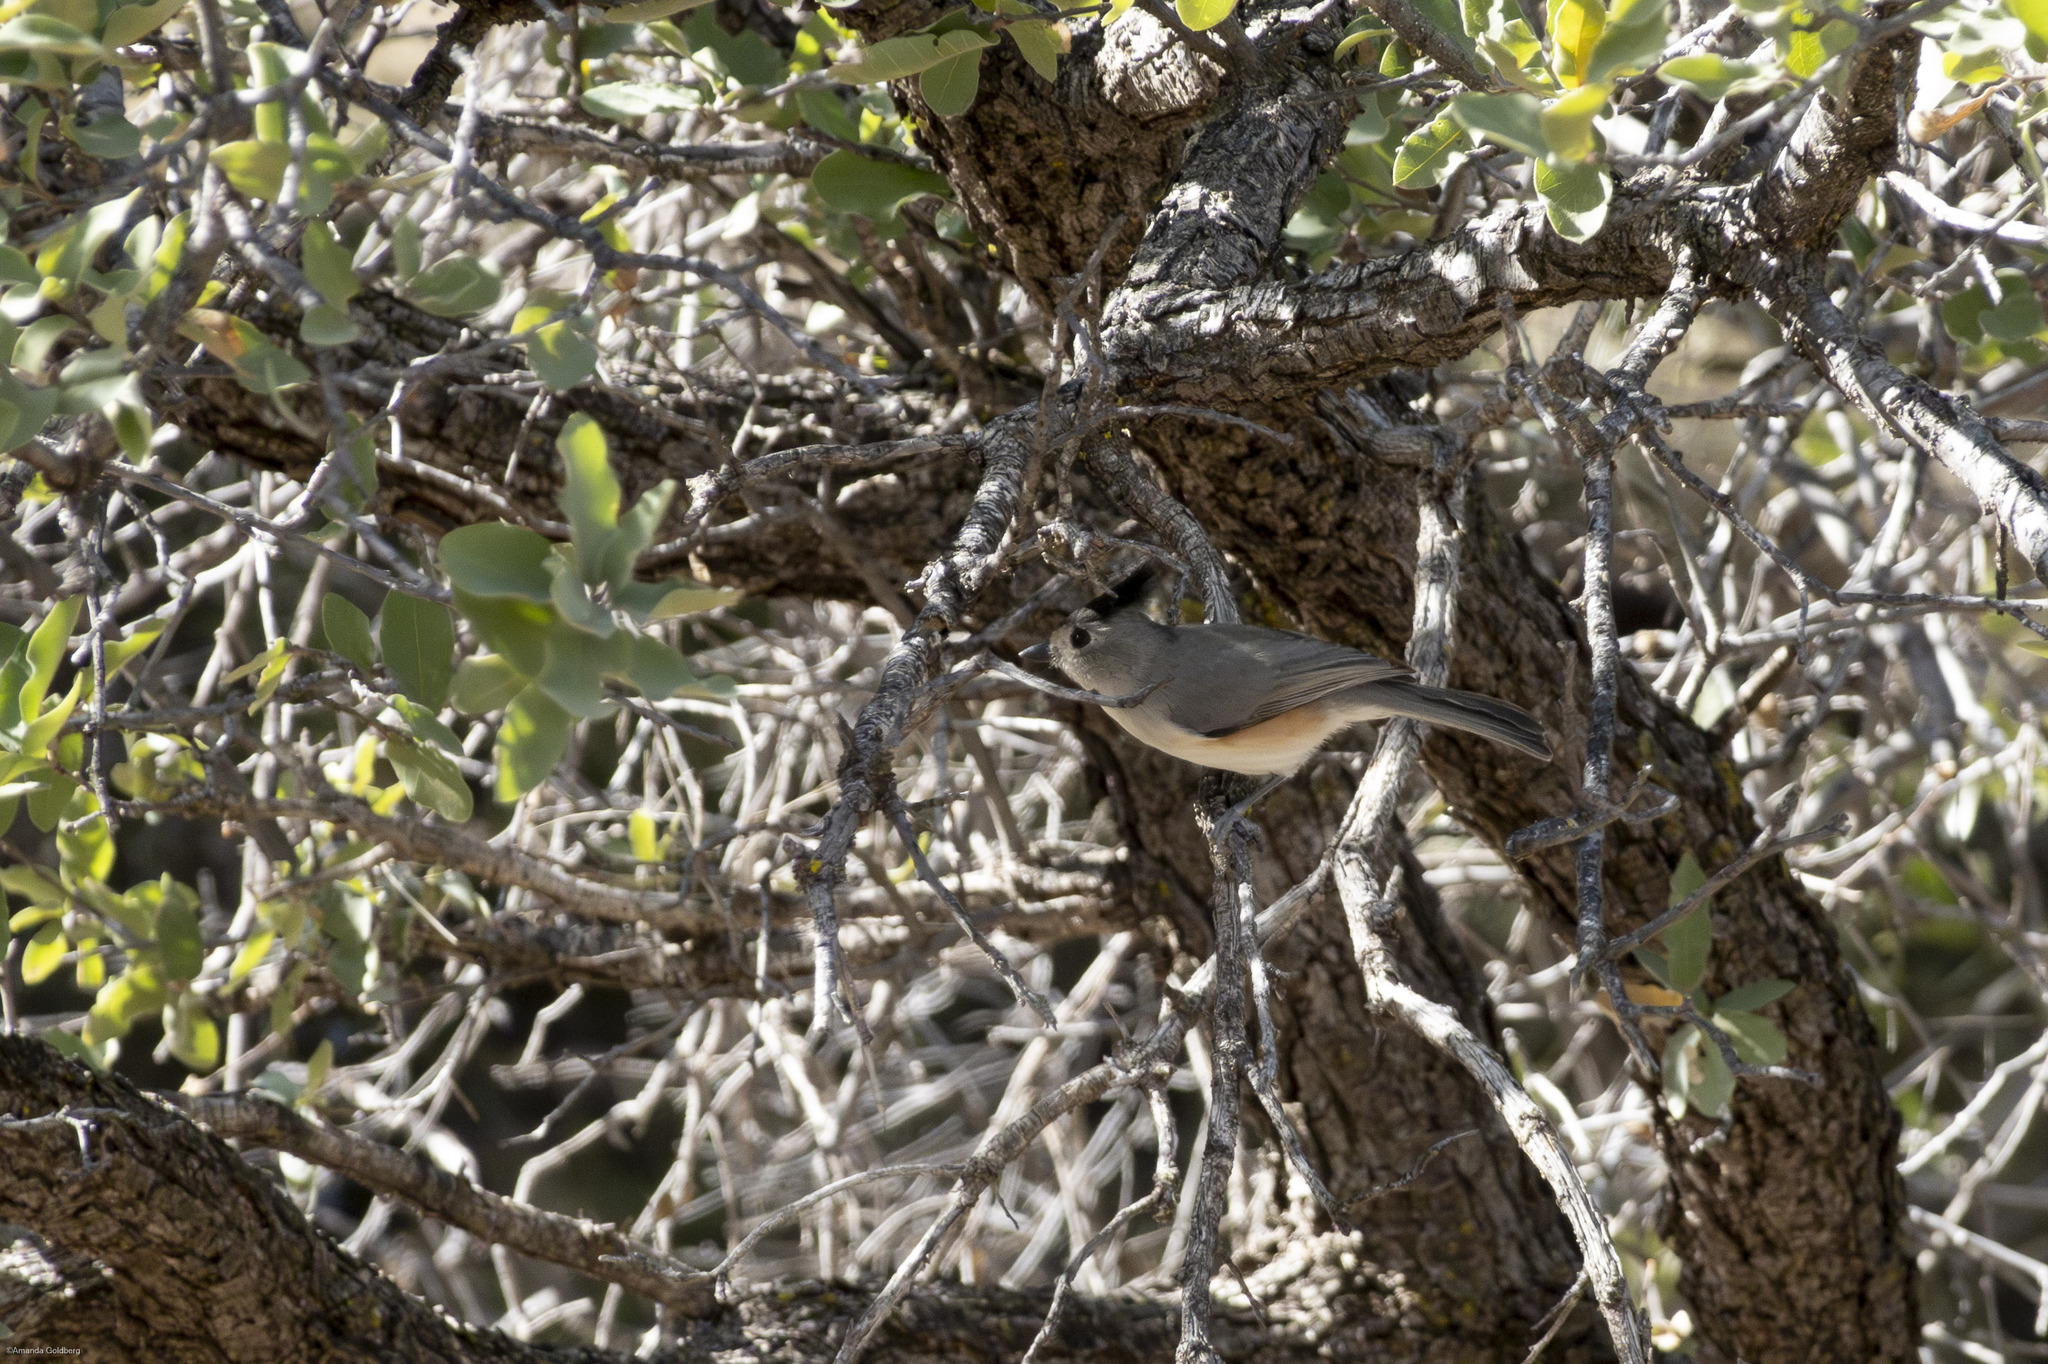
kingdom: Animalia
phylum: Chordata
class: Aves
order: Passeriformes
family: Paridae
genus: Baeolophus
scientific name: Baeolophus atricristatus
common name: Black-crested titmouse
